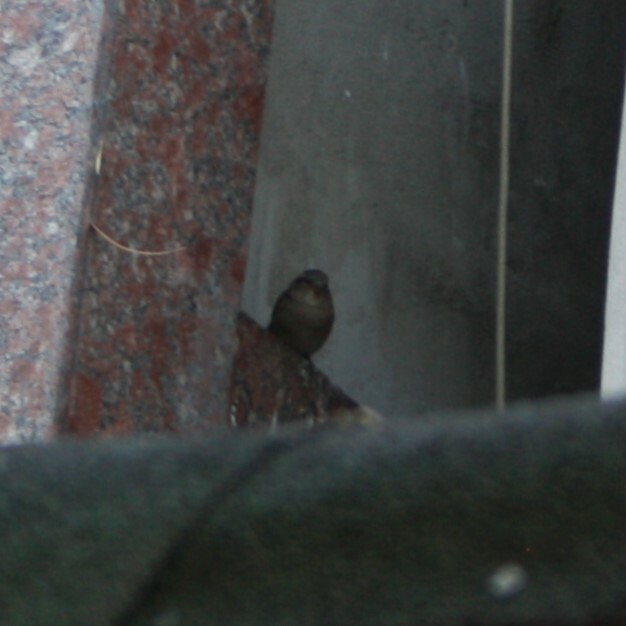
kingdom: Animalia
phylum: Chordata
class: Aves
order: Passeriformes
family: Passeridae
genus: Passer
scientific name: Passer domesticus
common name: House sparrow
